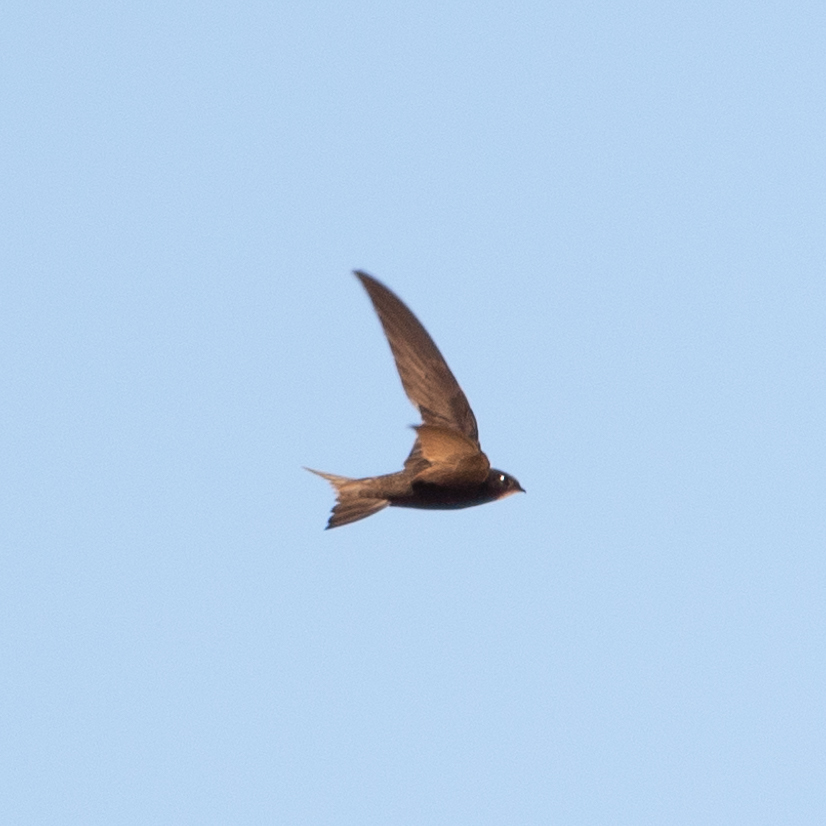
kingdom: Animalia
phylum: Chordata
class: Aves
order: Apodiformes
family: Apodidae
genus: Apus
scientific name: Apus apus
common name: Common swift
